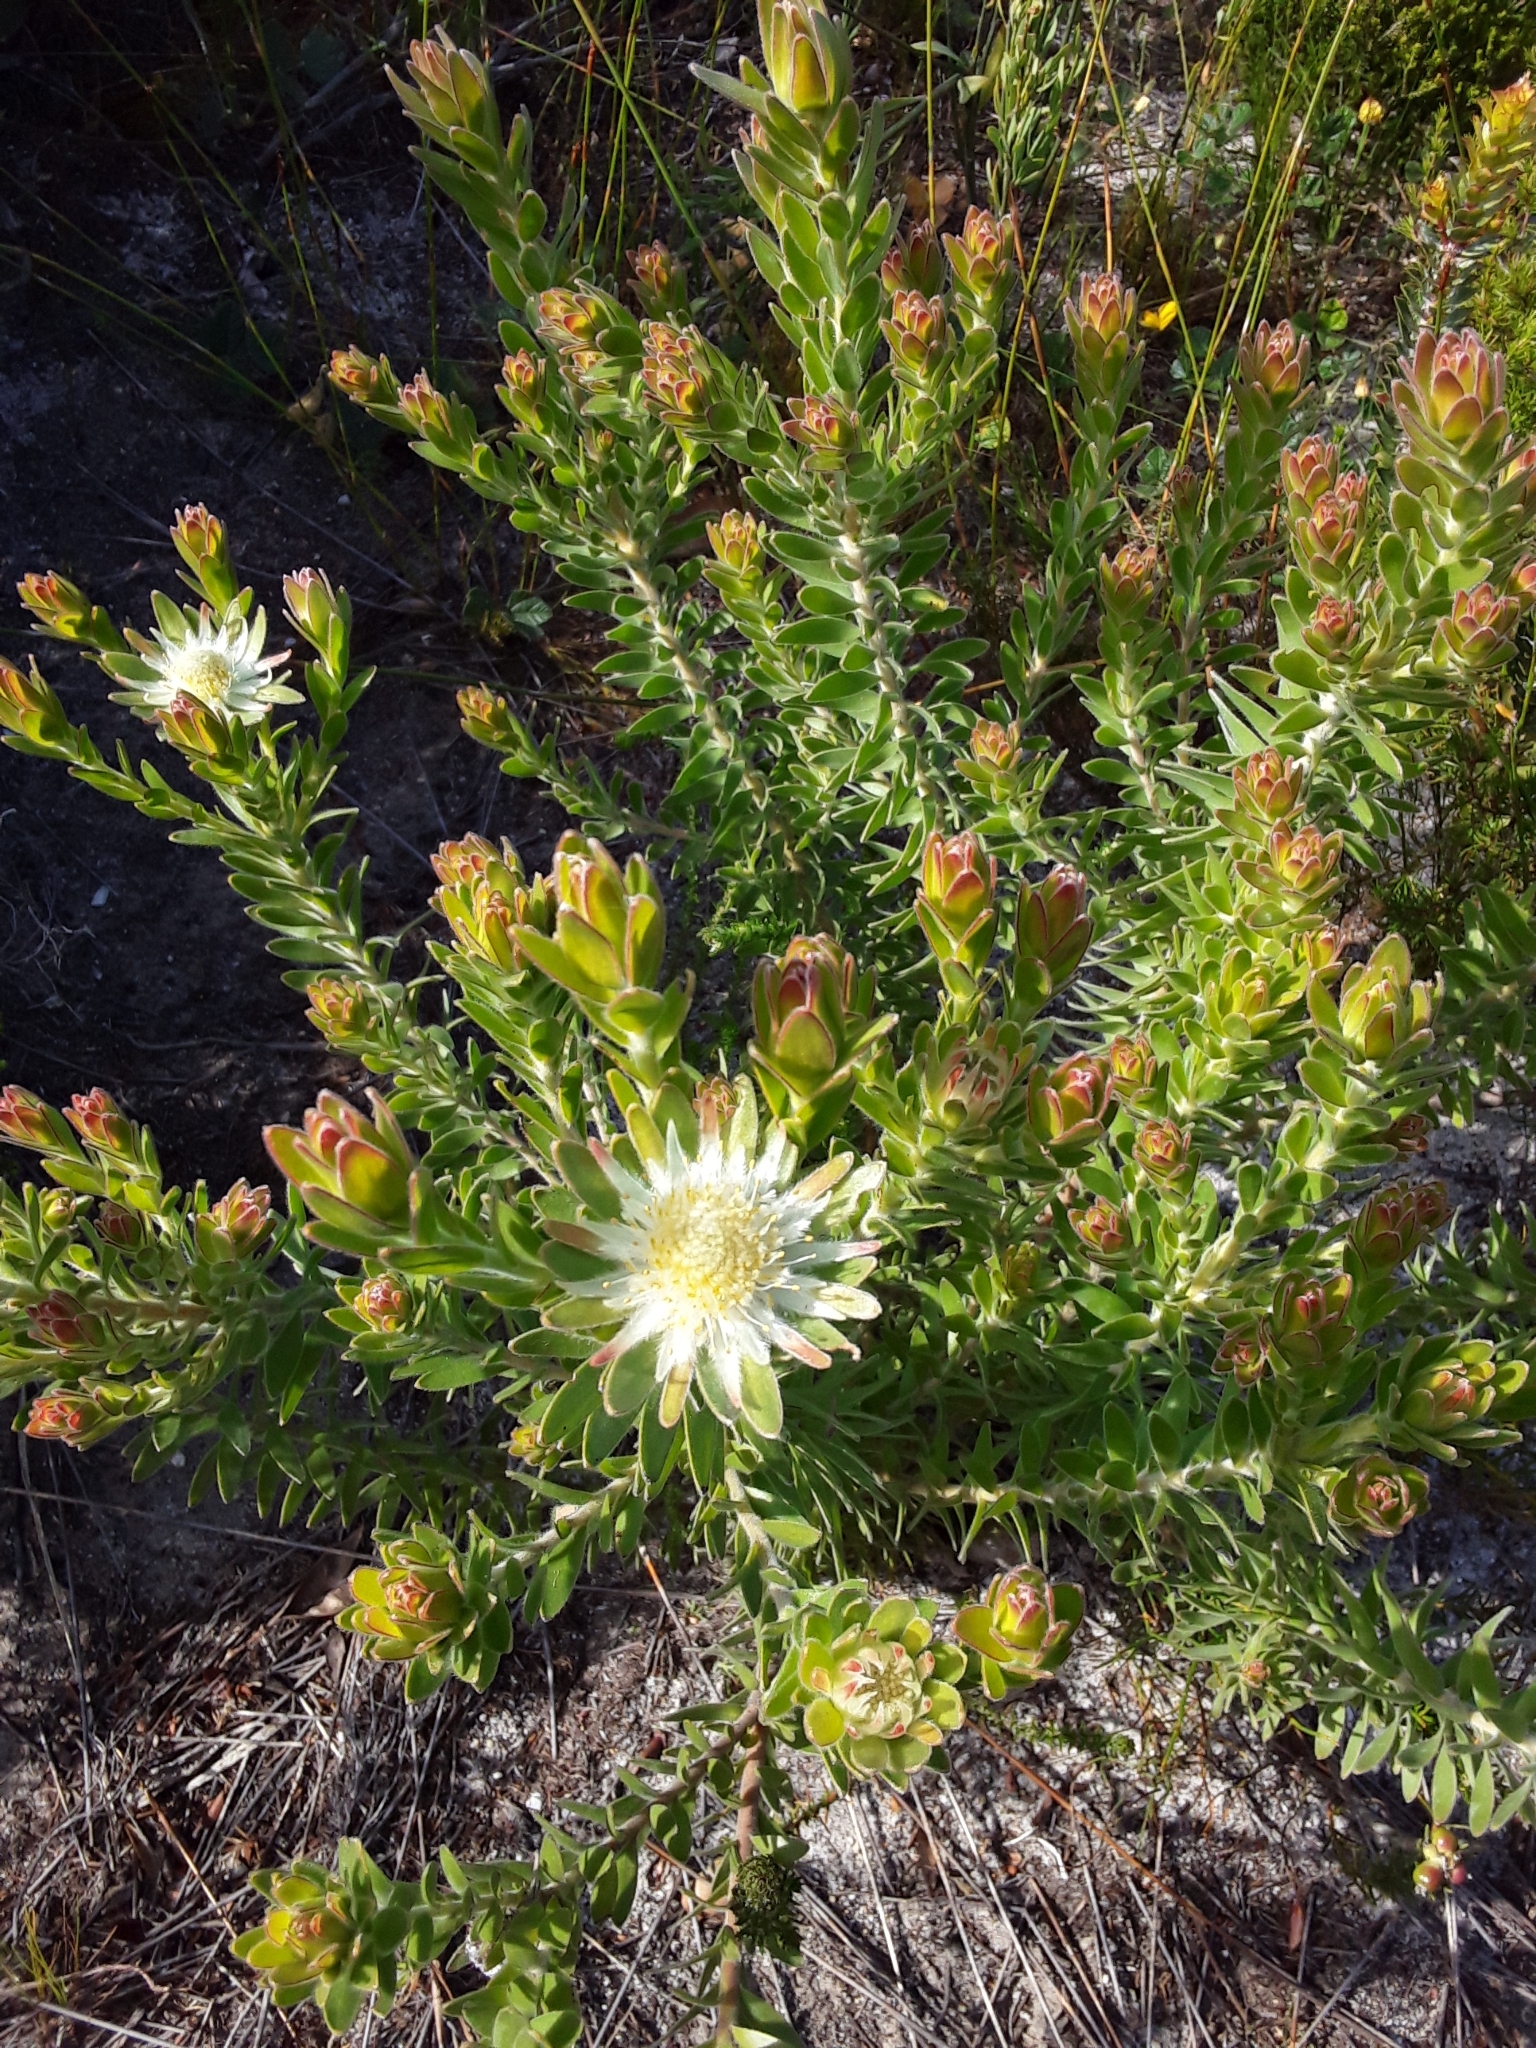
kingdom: Plantae
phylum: Tracheophyta
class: Magnoliopsida
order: Proteales
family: Proteaceae
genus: Diastella
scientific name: Diastella thymelaeoides
